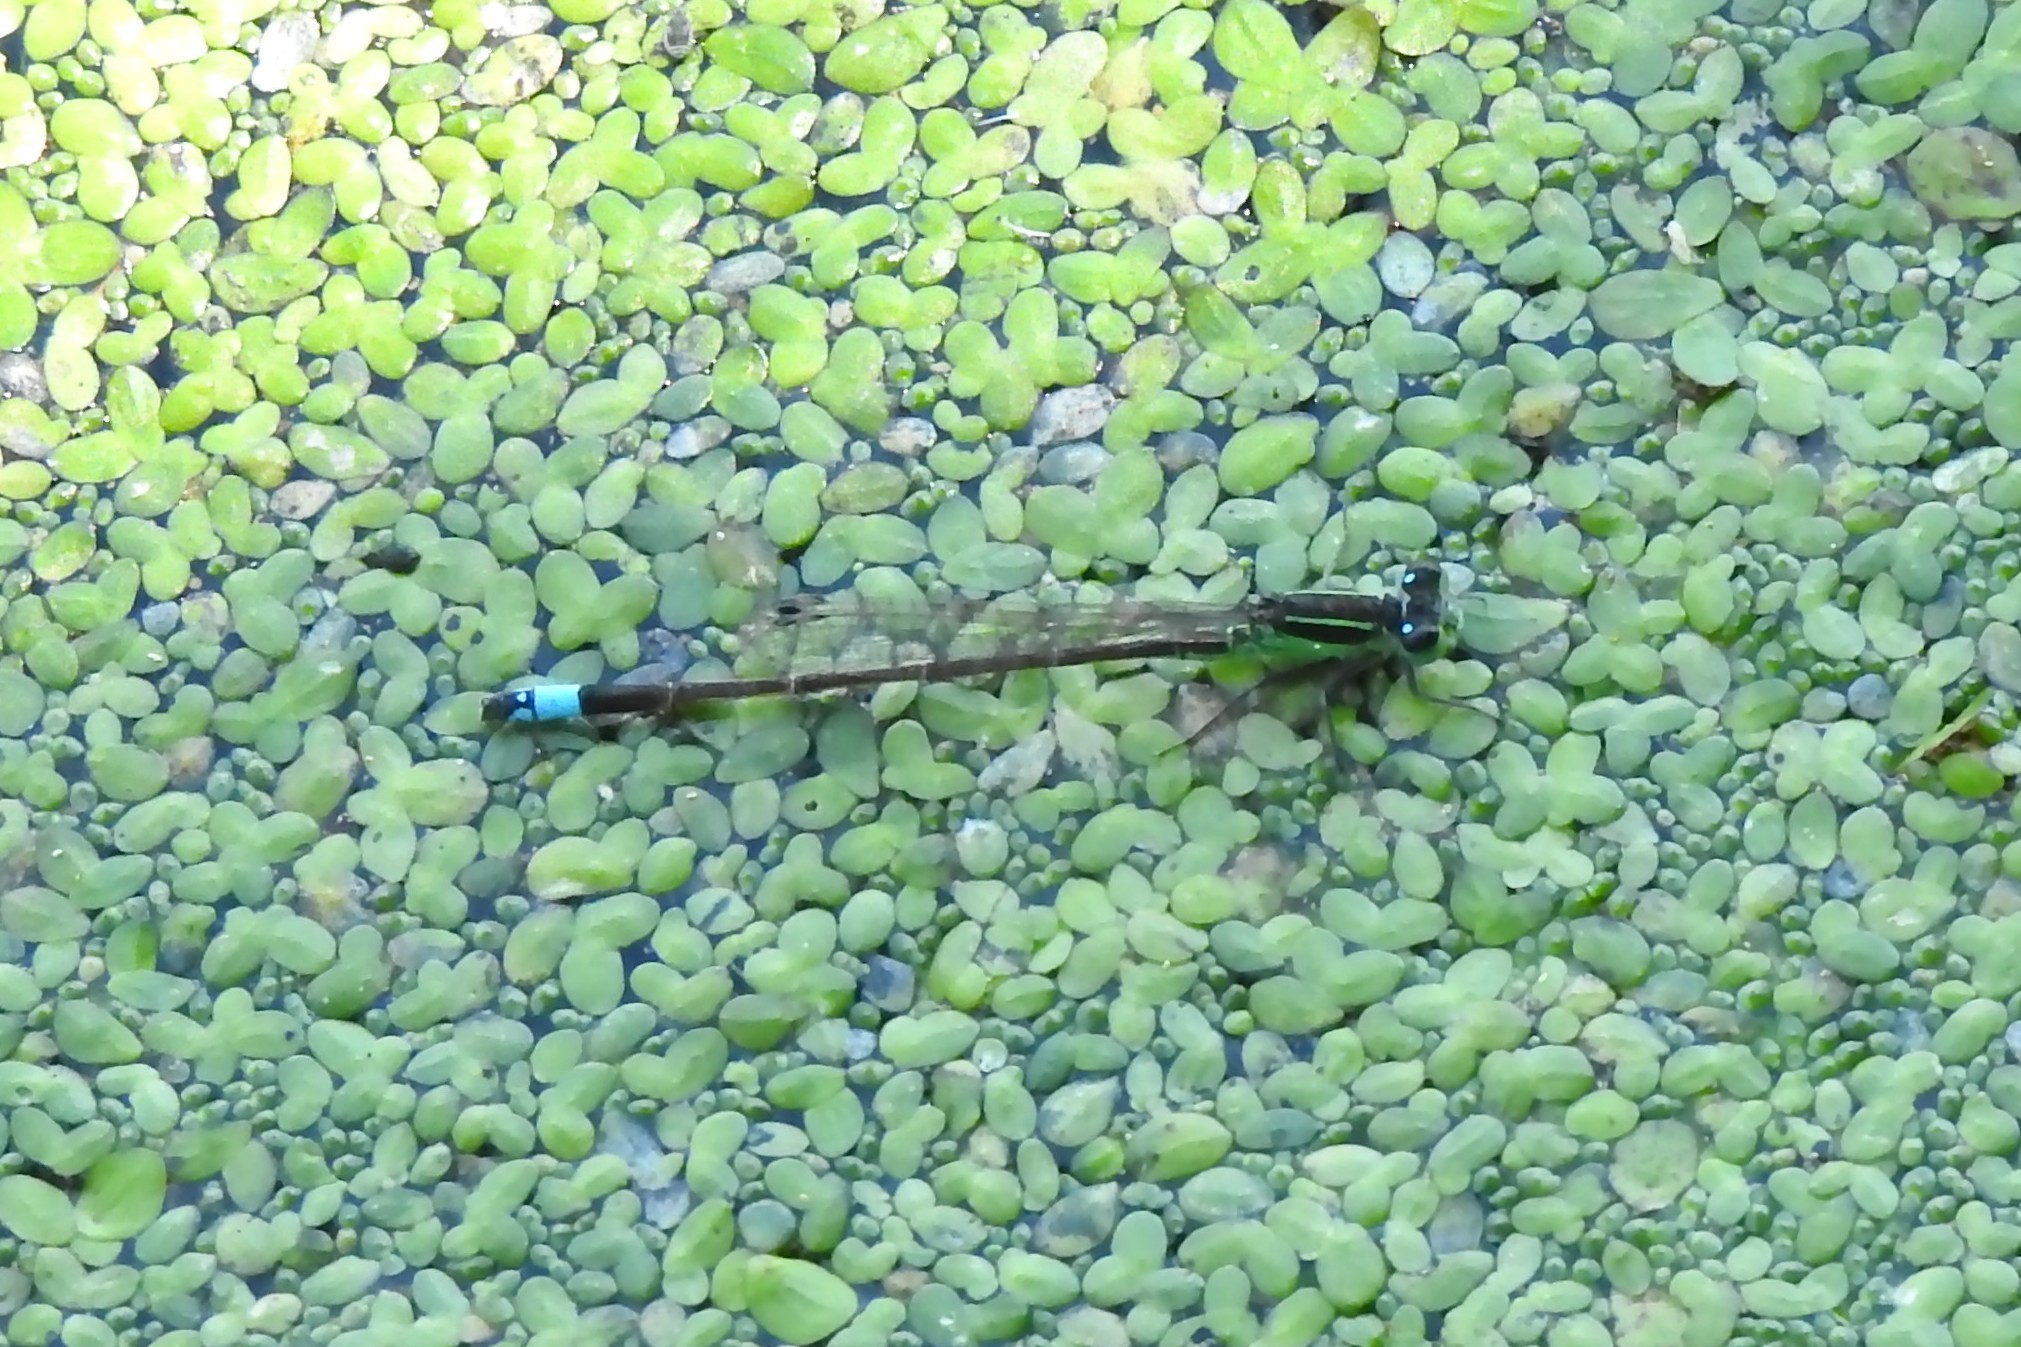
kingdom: Animalia
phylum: Arthropoda
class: Insecta
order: Odonata
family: Coenagrionidae
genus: Ischnura
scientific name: Ischnura ramburii
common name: Rambur's forktail
